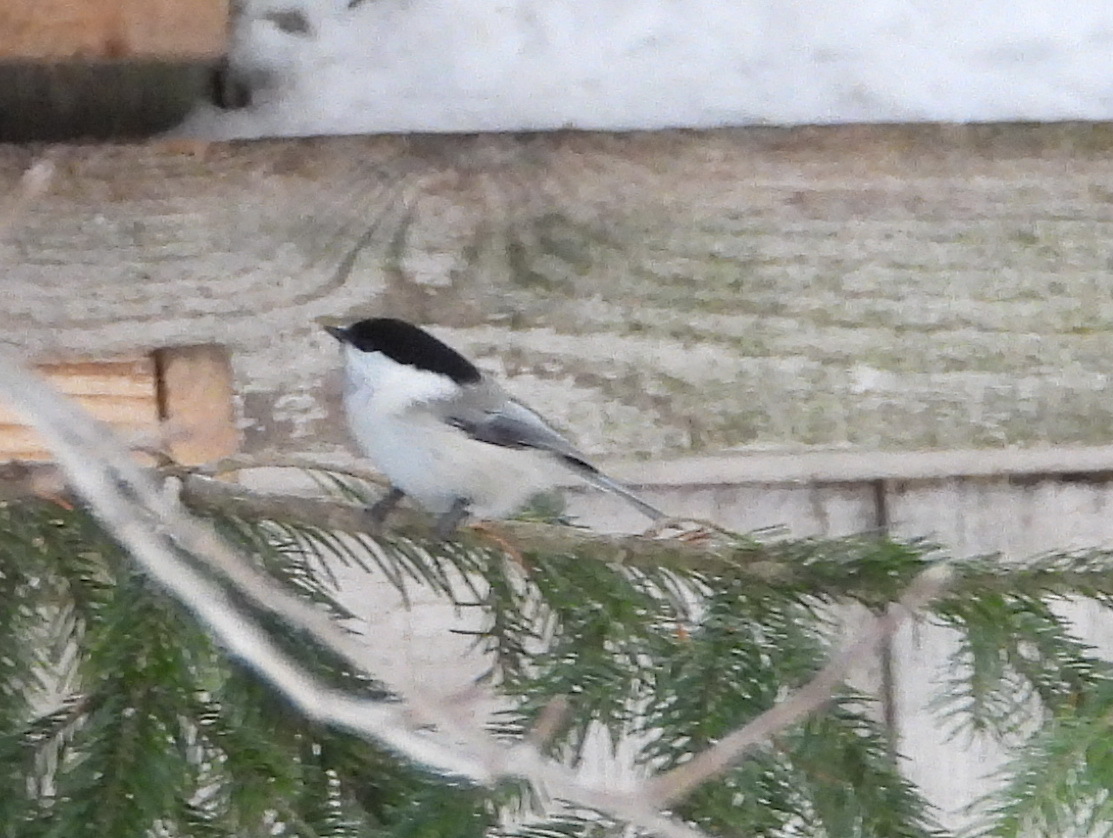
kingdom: Animalia
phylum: Chordata
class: Aves
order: Passeriformes
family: Paridae
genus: Poecile
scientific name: Poecile montanus
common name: Willow tit
